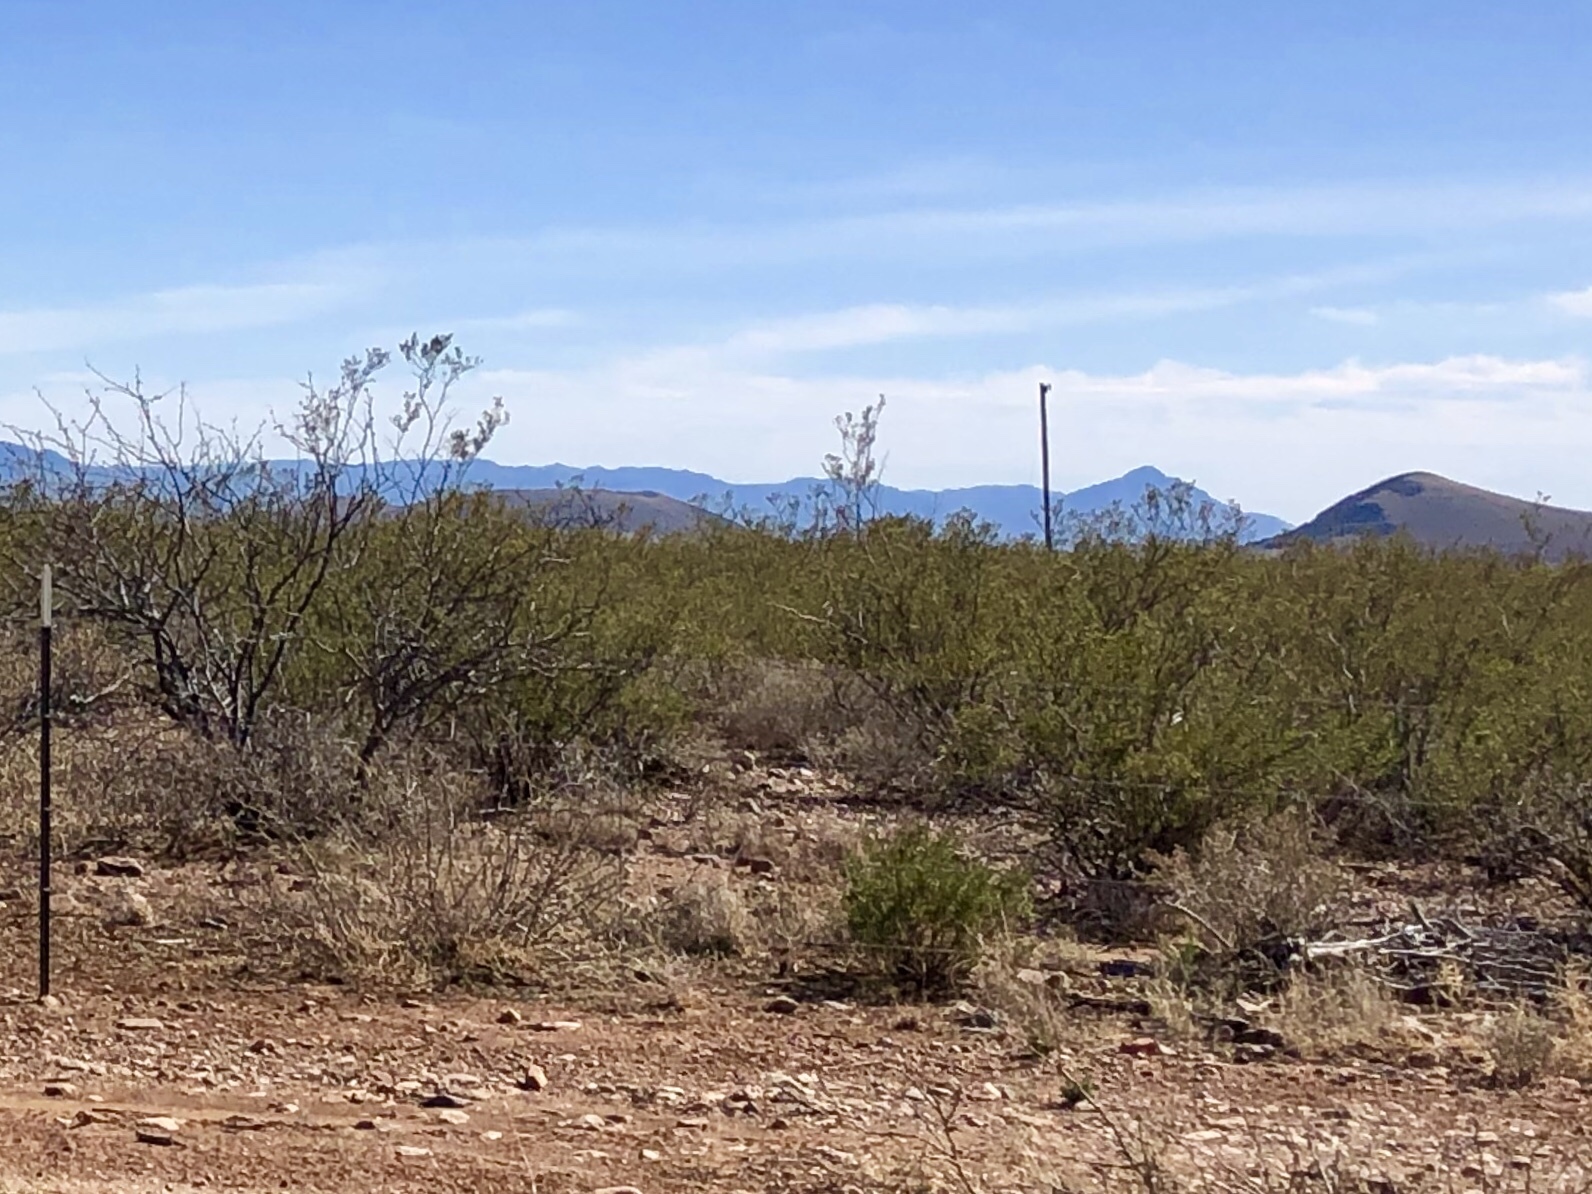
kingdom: Plantae
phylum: Tracheophyta
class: Magnoliopsida
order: Zygophyllales
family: Zygophyllaceae
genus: Larrea
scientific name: Larrea tridentata
